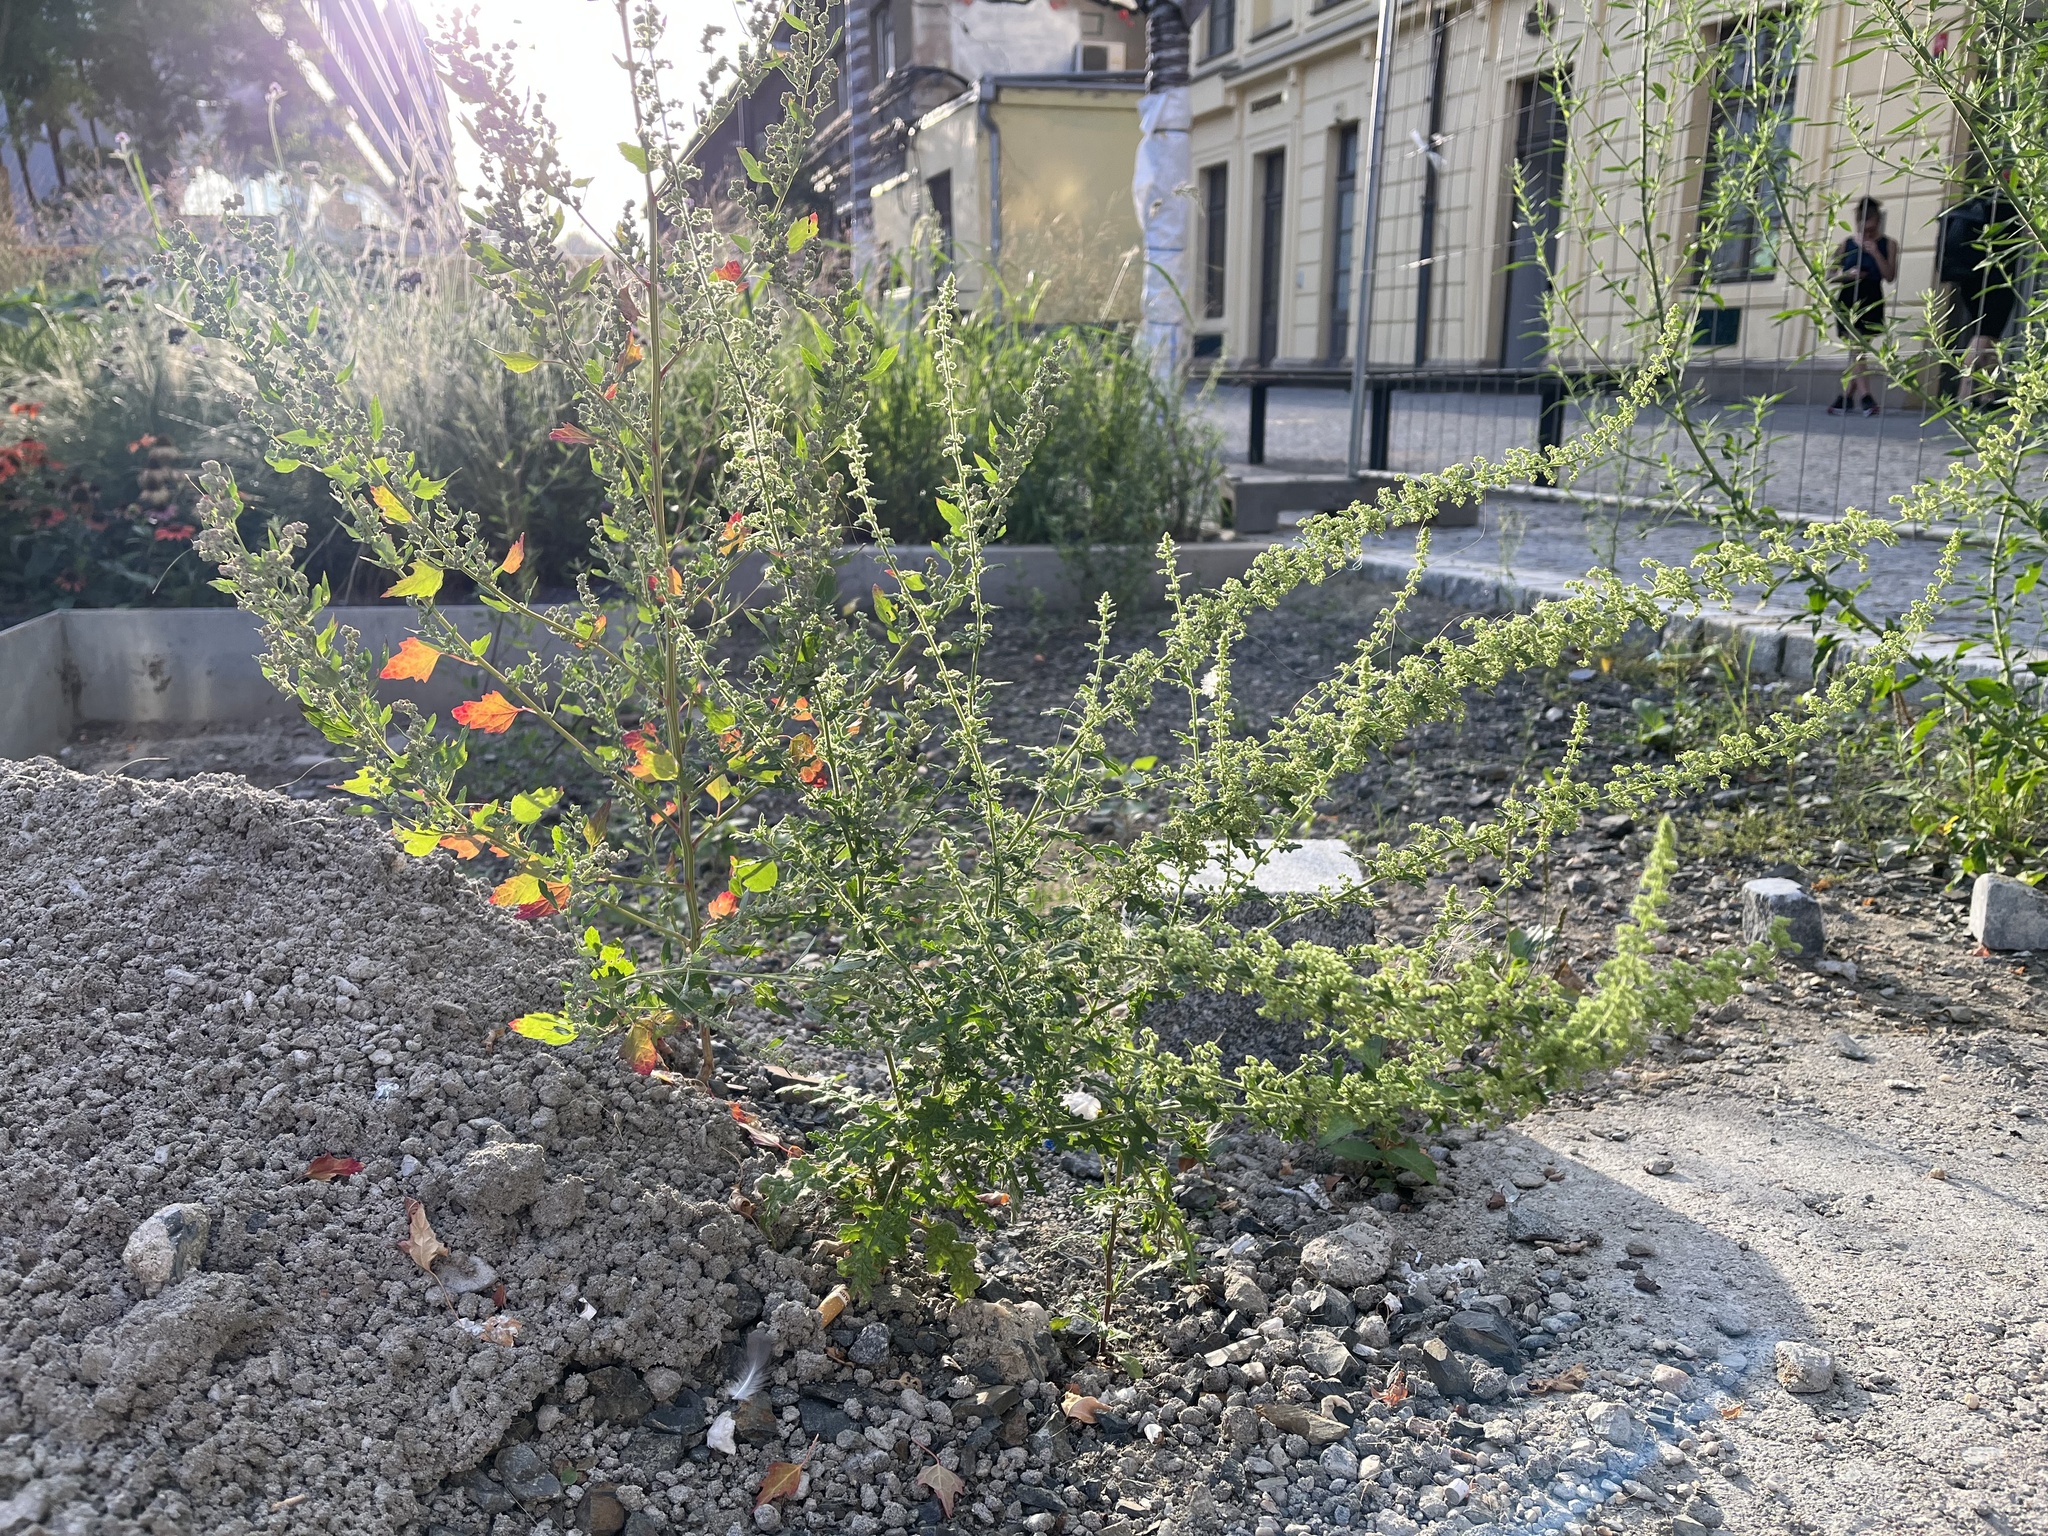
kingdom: Plantae
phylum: Tracheophyta
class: Magnoliopsida
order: Caryophyllales
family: Amaranthaceae
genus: Dysphania
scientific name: Dysphania botrys
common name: Feather-geranium
